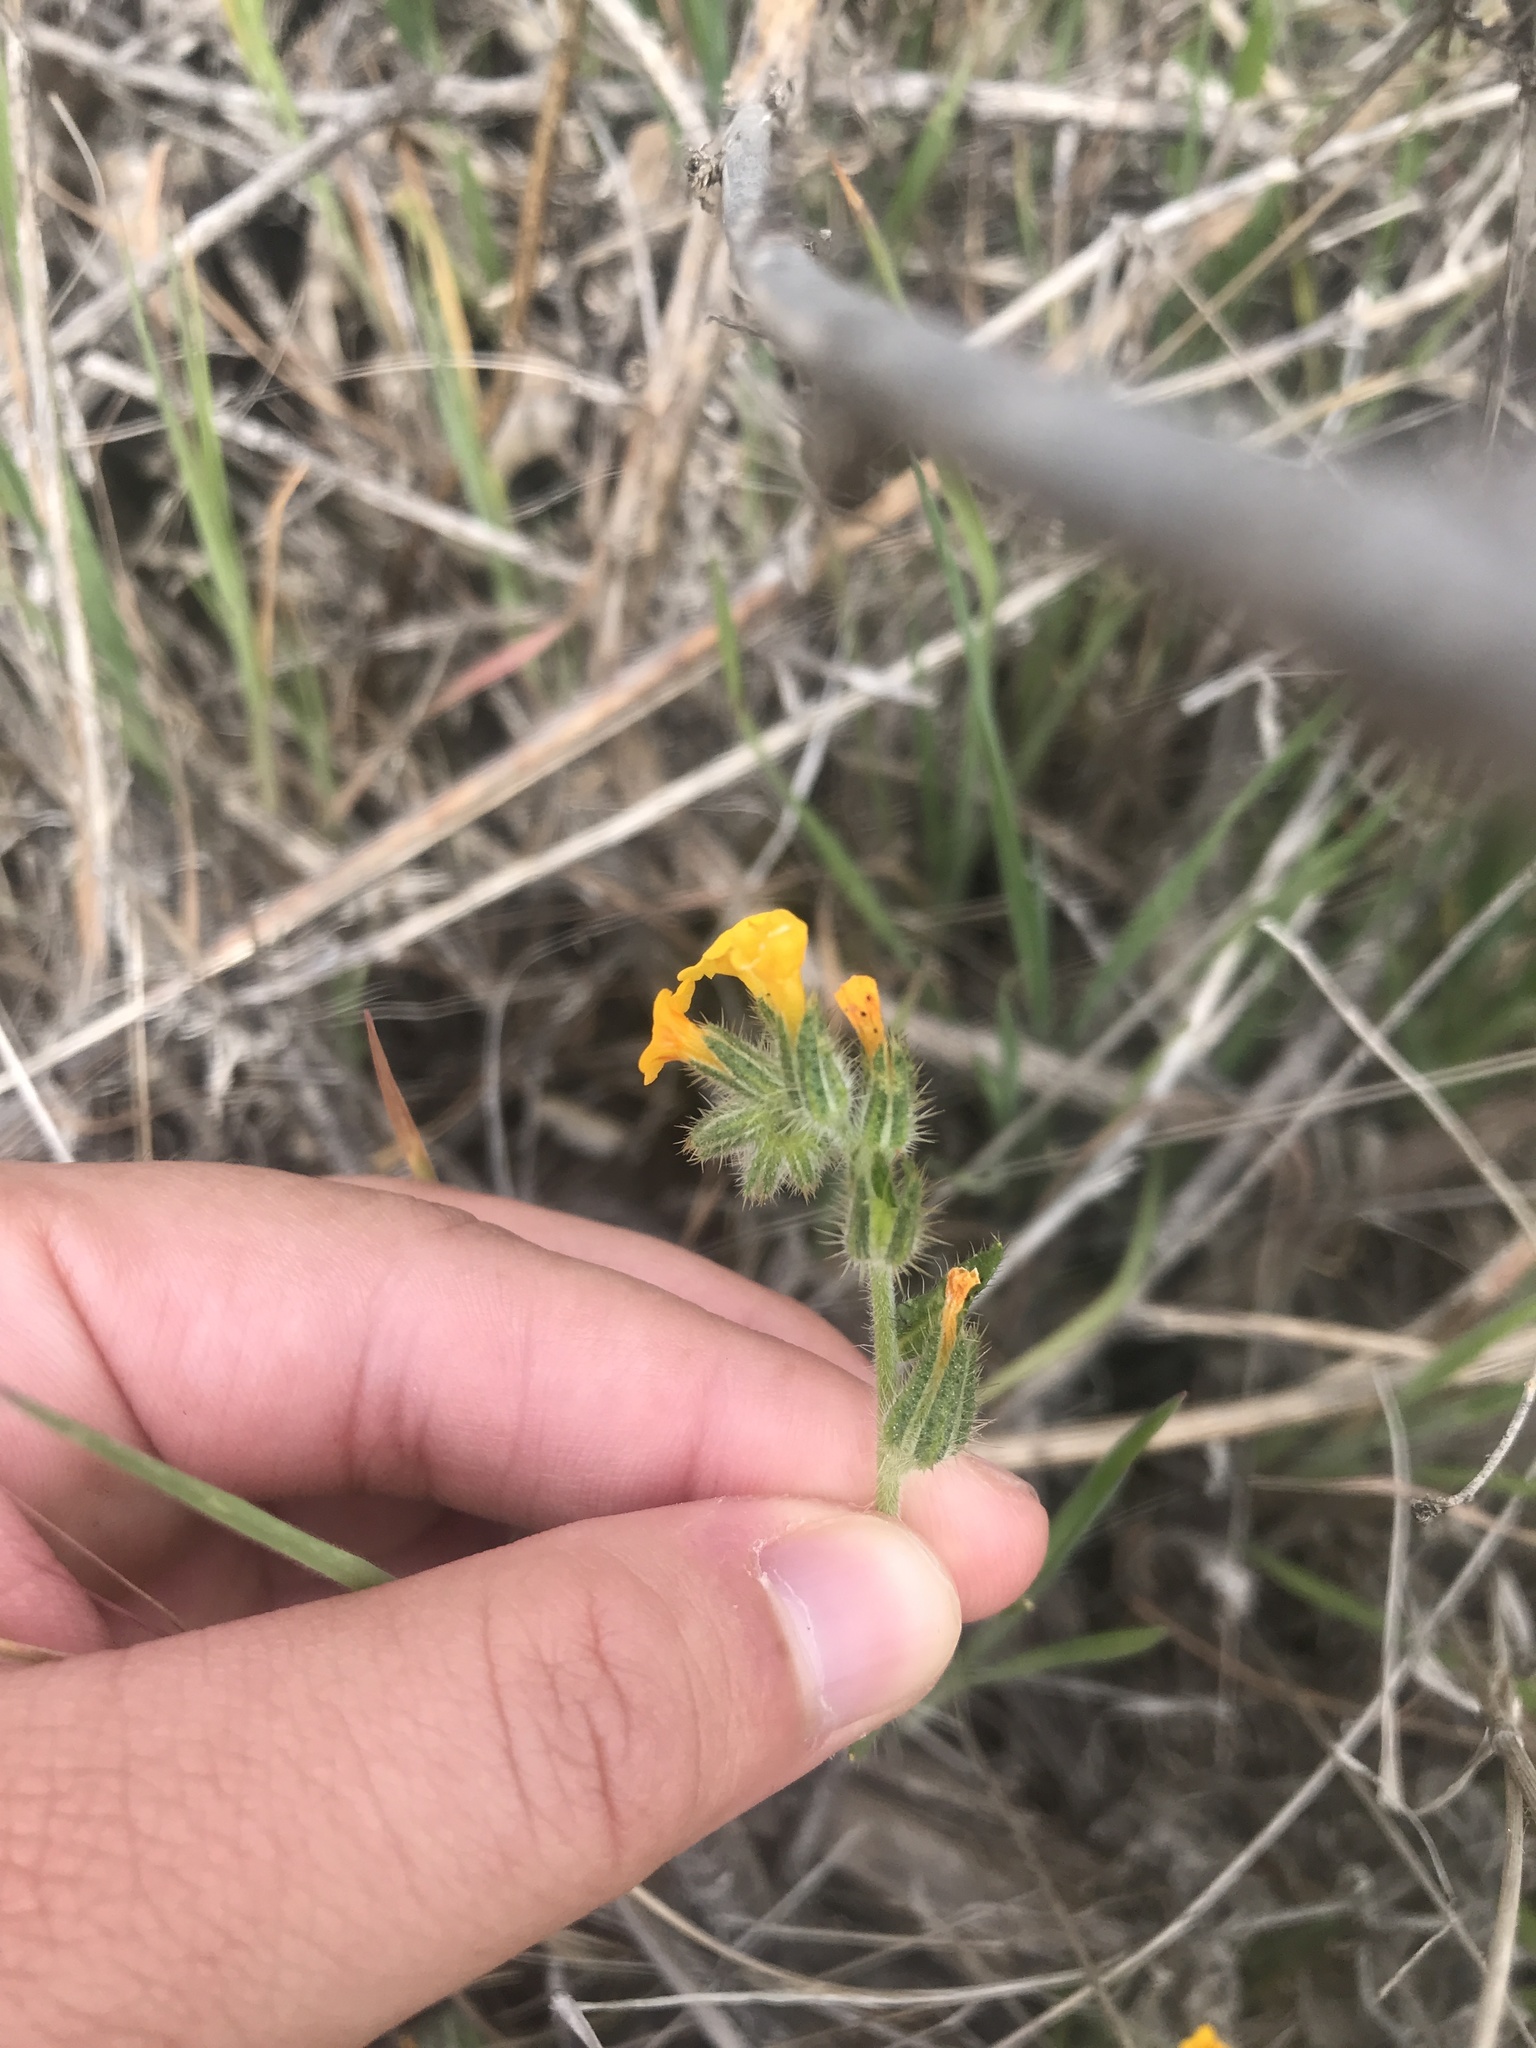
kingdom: Plantae
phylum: Tracheophyta
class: Magnoliopsida
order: Boraginales
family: Boraginaceae
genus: Amsinckia
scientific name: Amsinckia menziesii
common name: Menzies' fiddleneck
